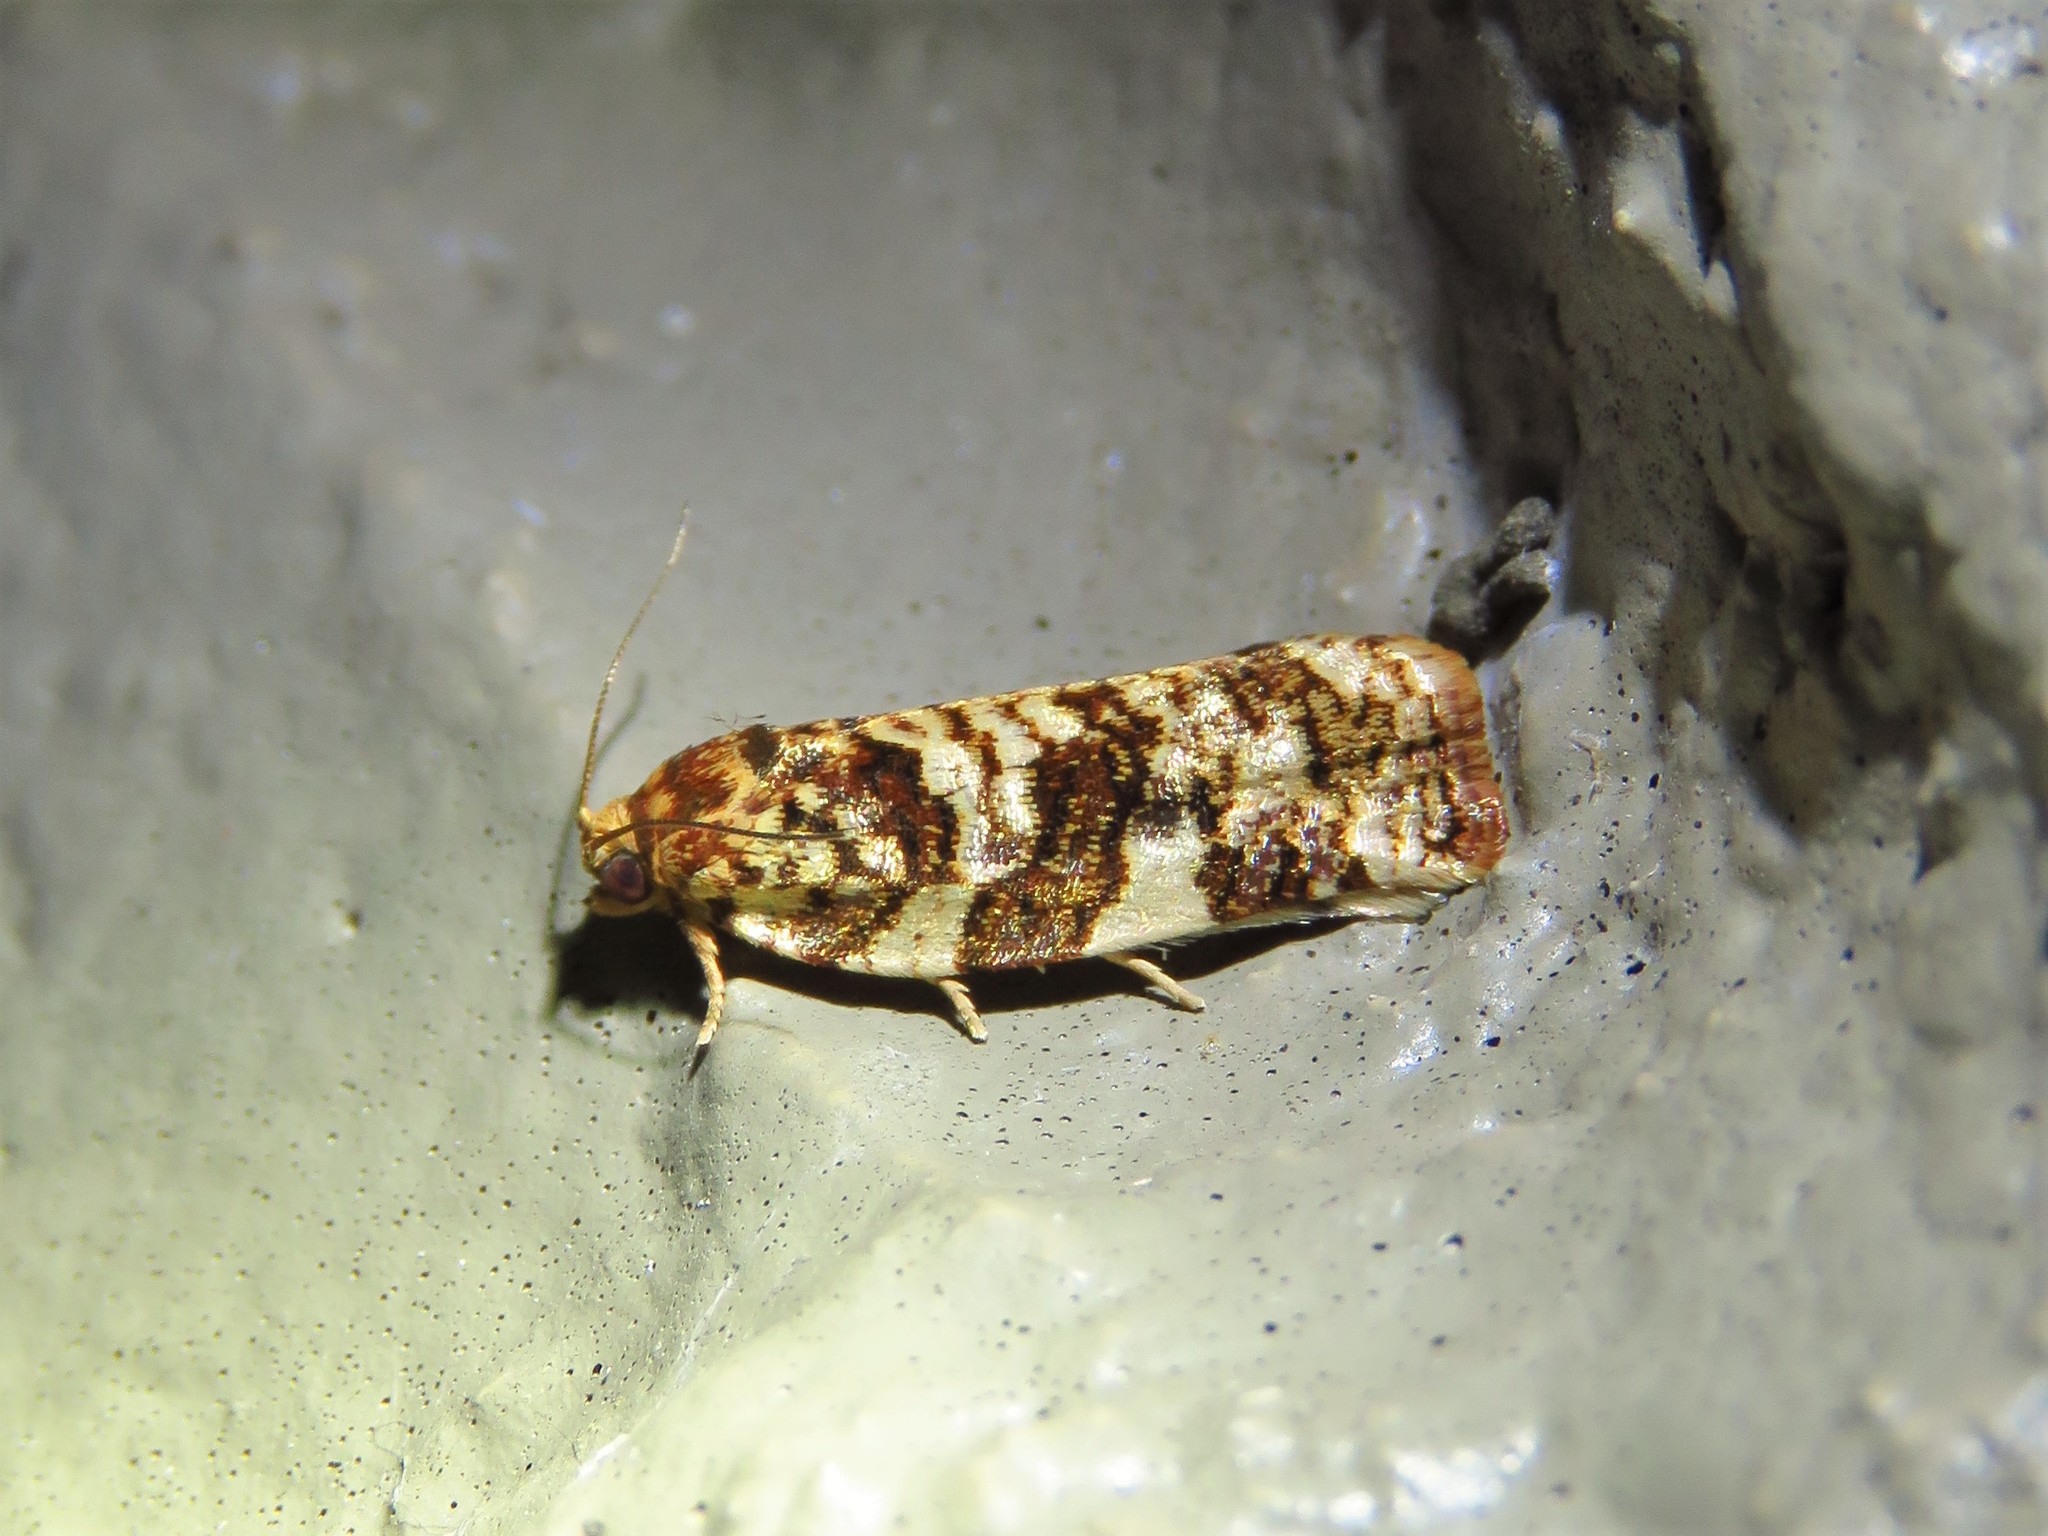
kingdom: Animalia
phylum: Arthropoda
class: Insecta
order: Lepidoptera
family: Tortricidae
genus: Archips
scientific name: Archips argyrospila
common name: Fruit-tree leafroller moth
